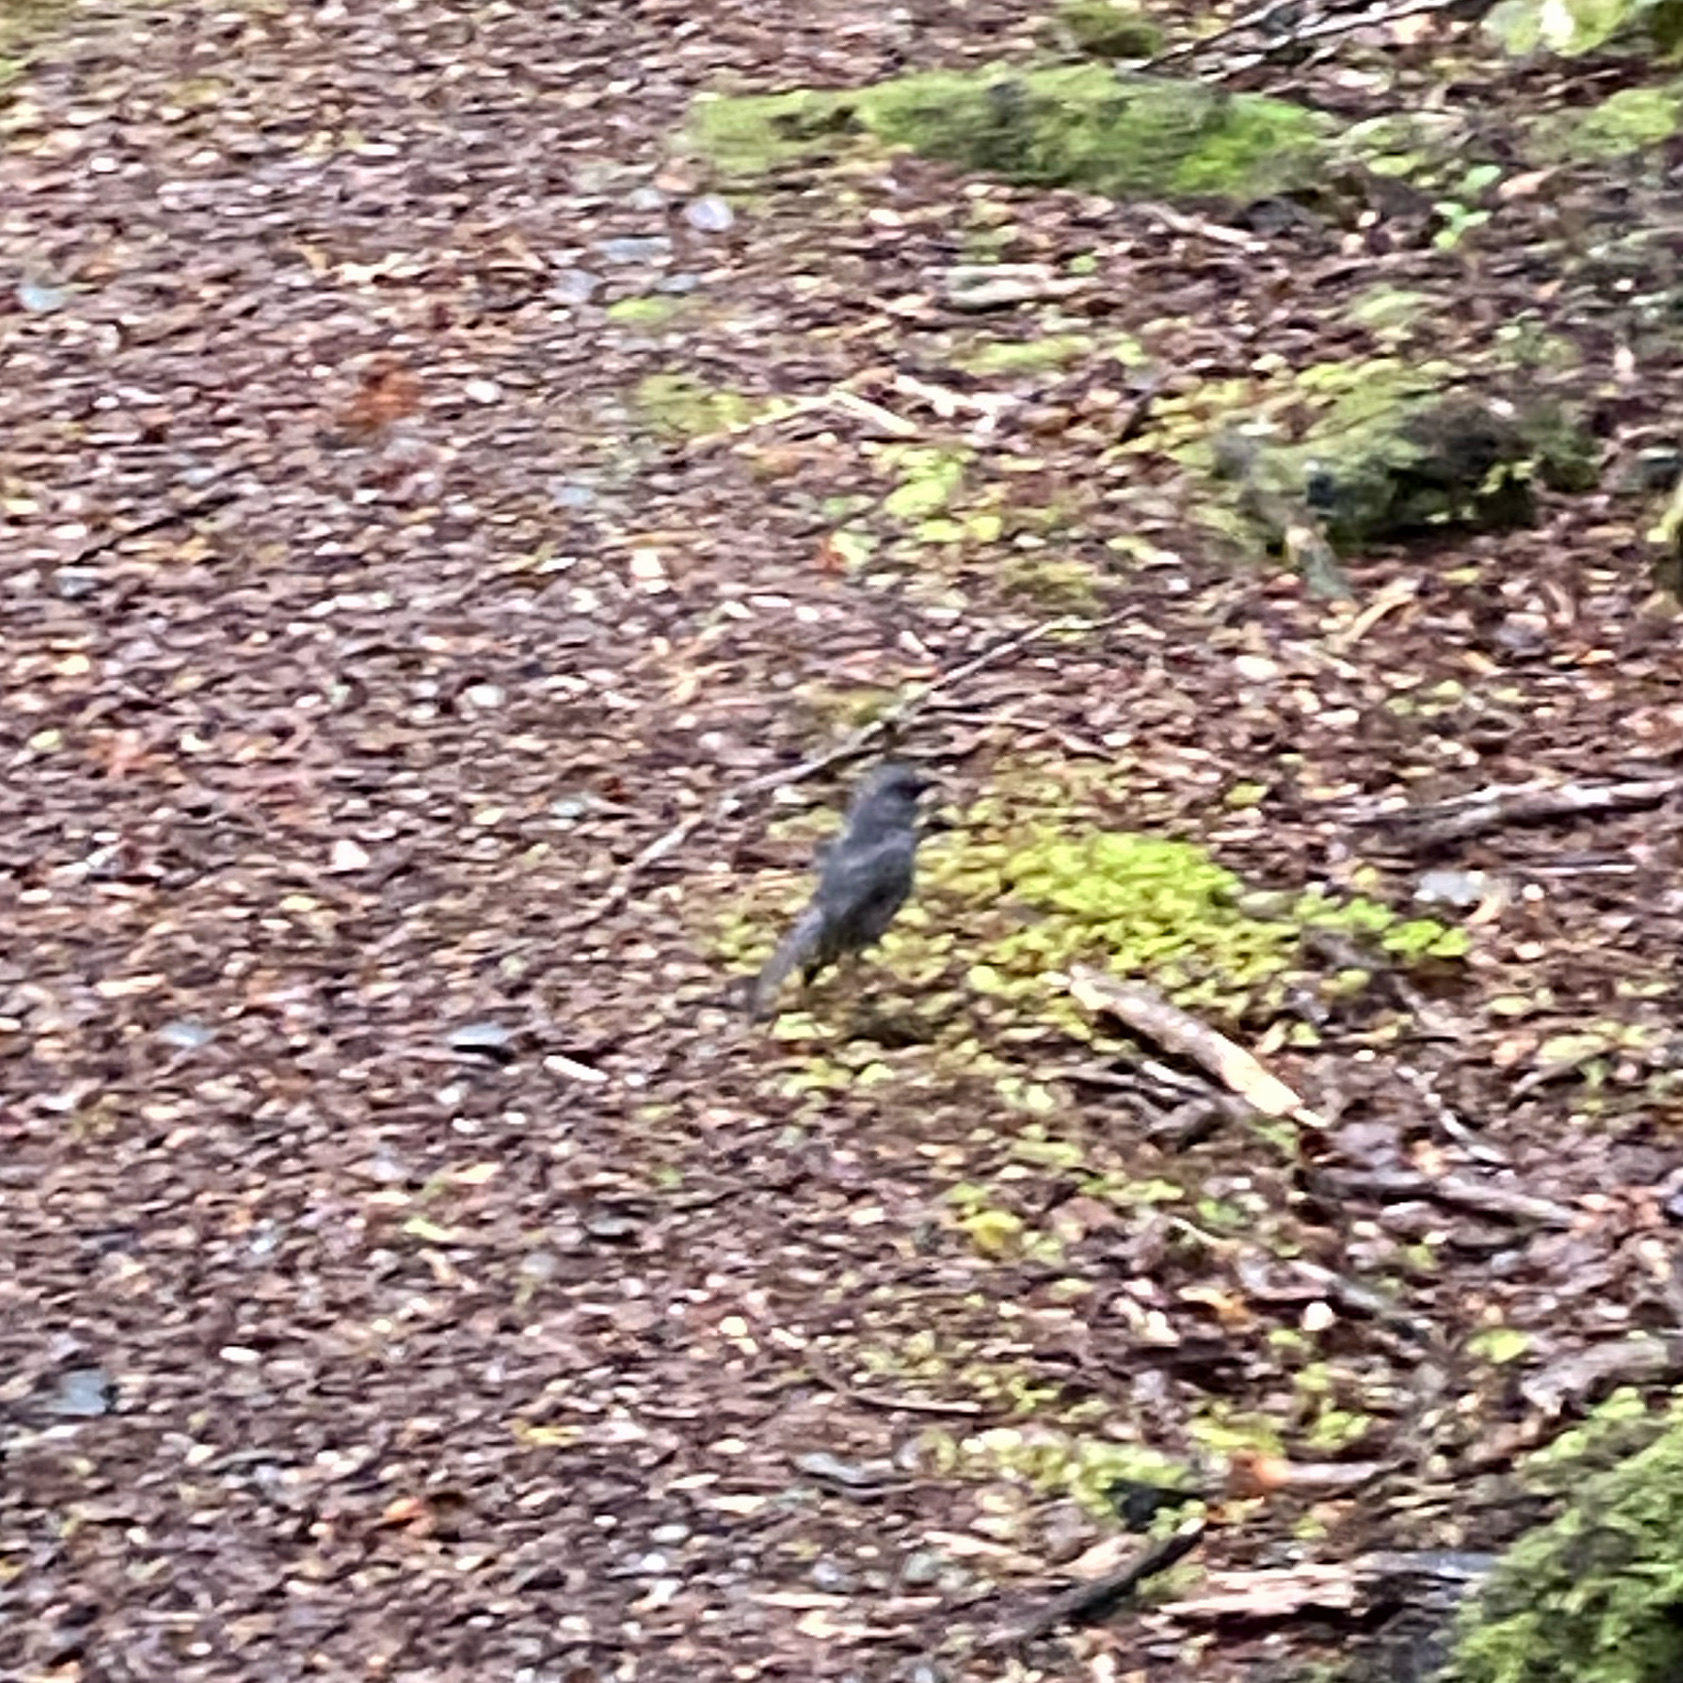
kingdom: Animalia
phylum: Chordata
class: Aves
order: Passeriformes
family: Petroicidae
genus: Petroica
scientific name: Petroica australis
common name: New zealand robin
